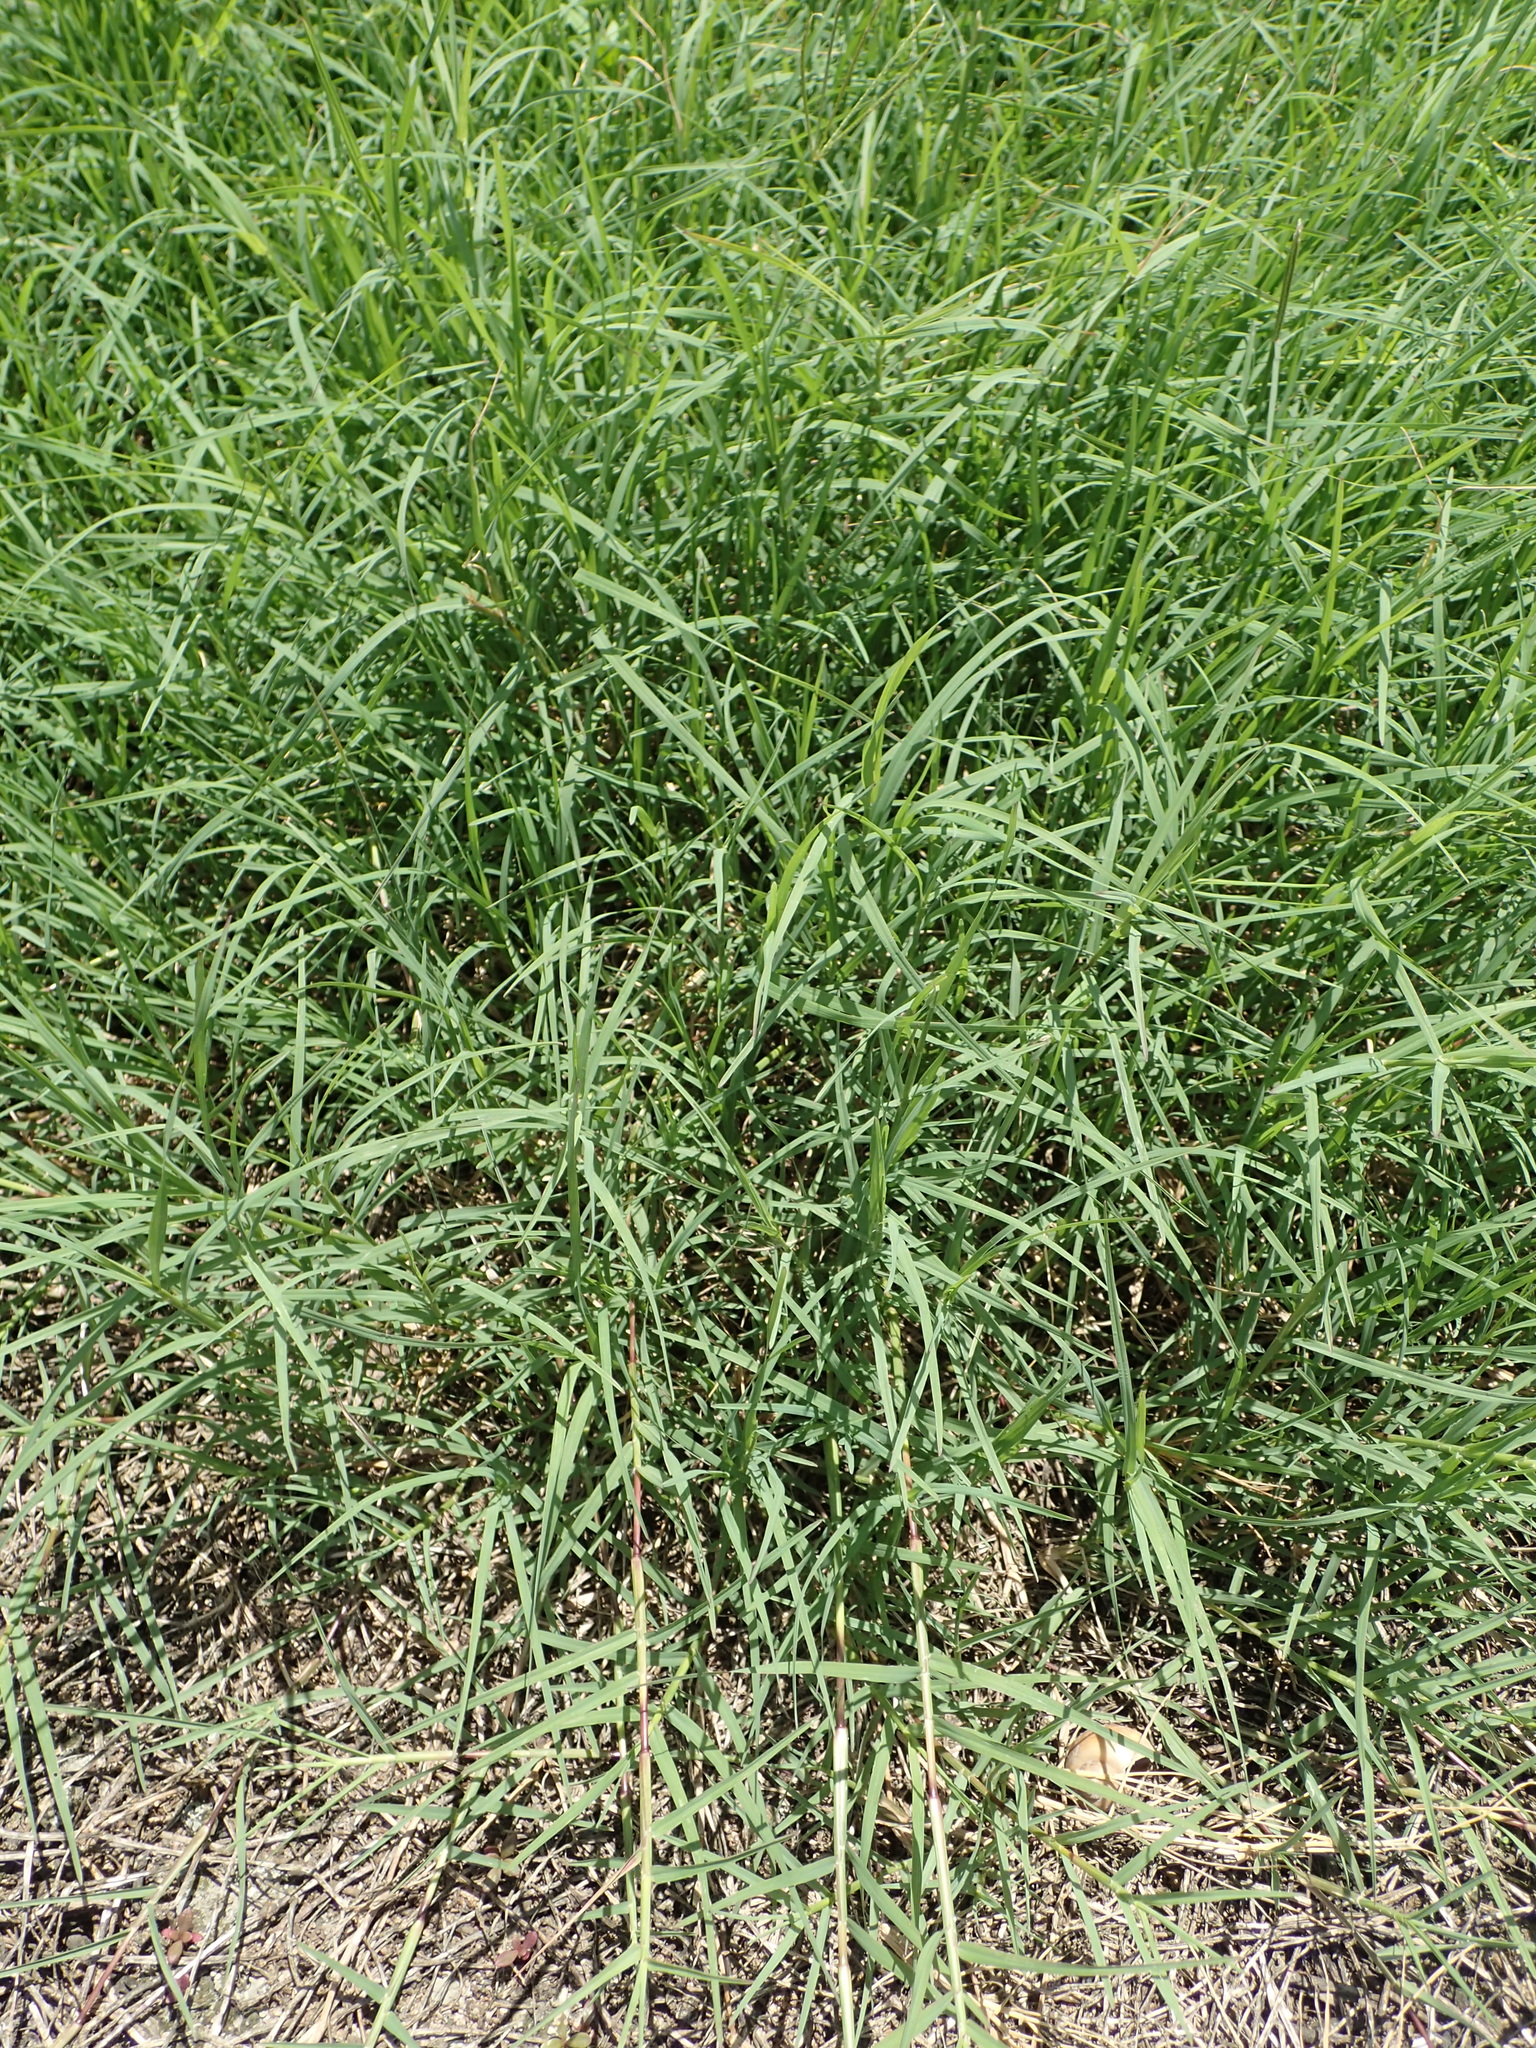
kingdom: Plantae
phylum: Tracheophyta
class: Liliopsida
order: Poales
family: Poaceae
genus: Cynodon
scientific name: Cynodon dactylon
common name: Bermuda grass
